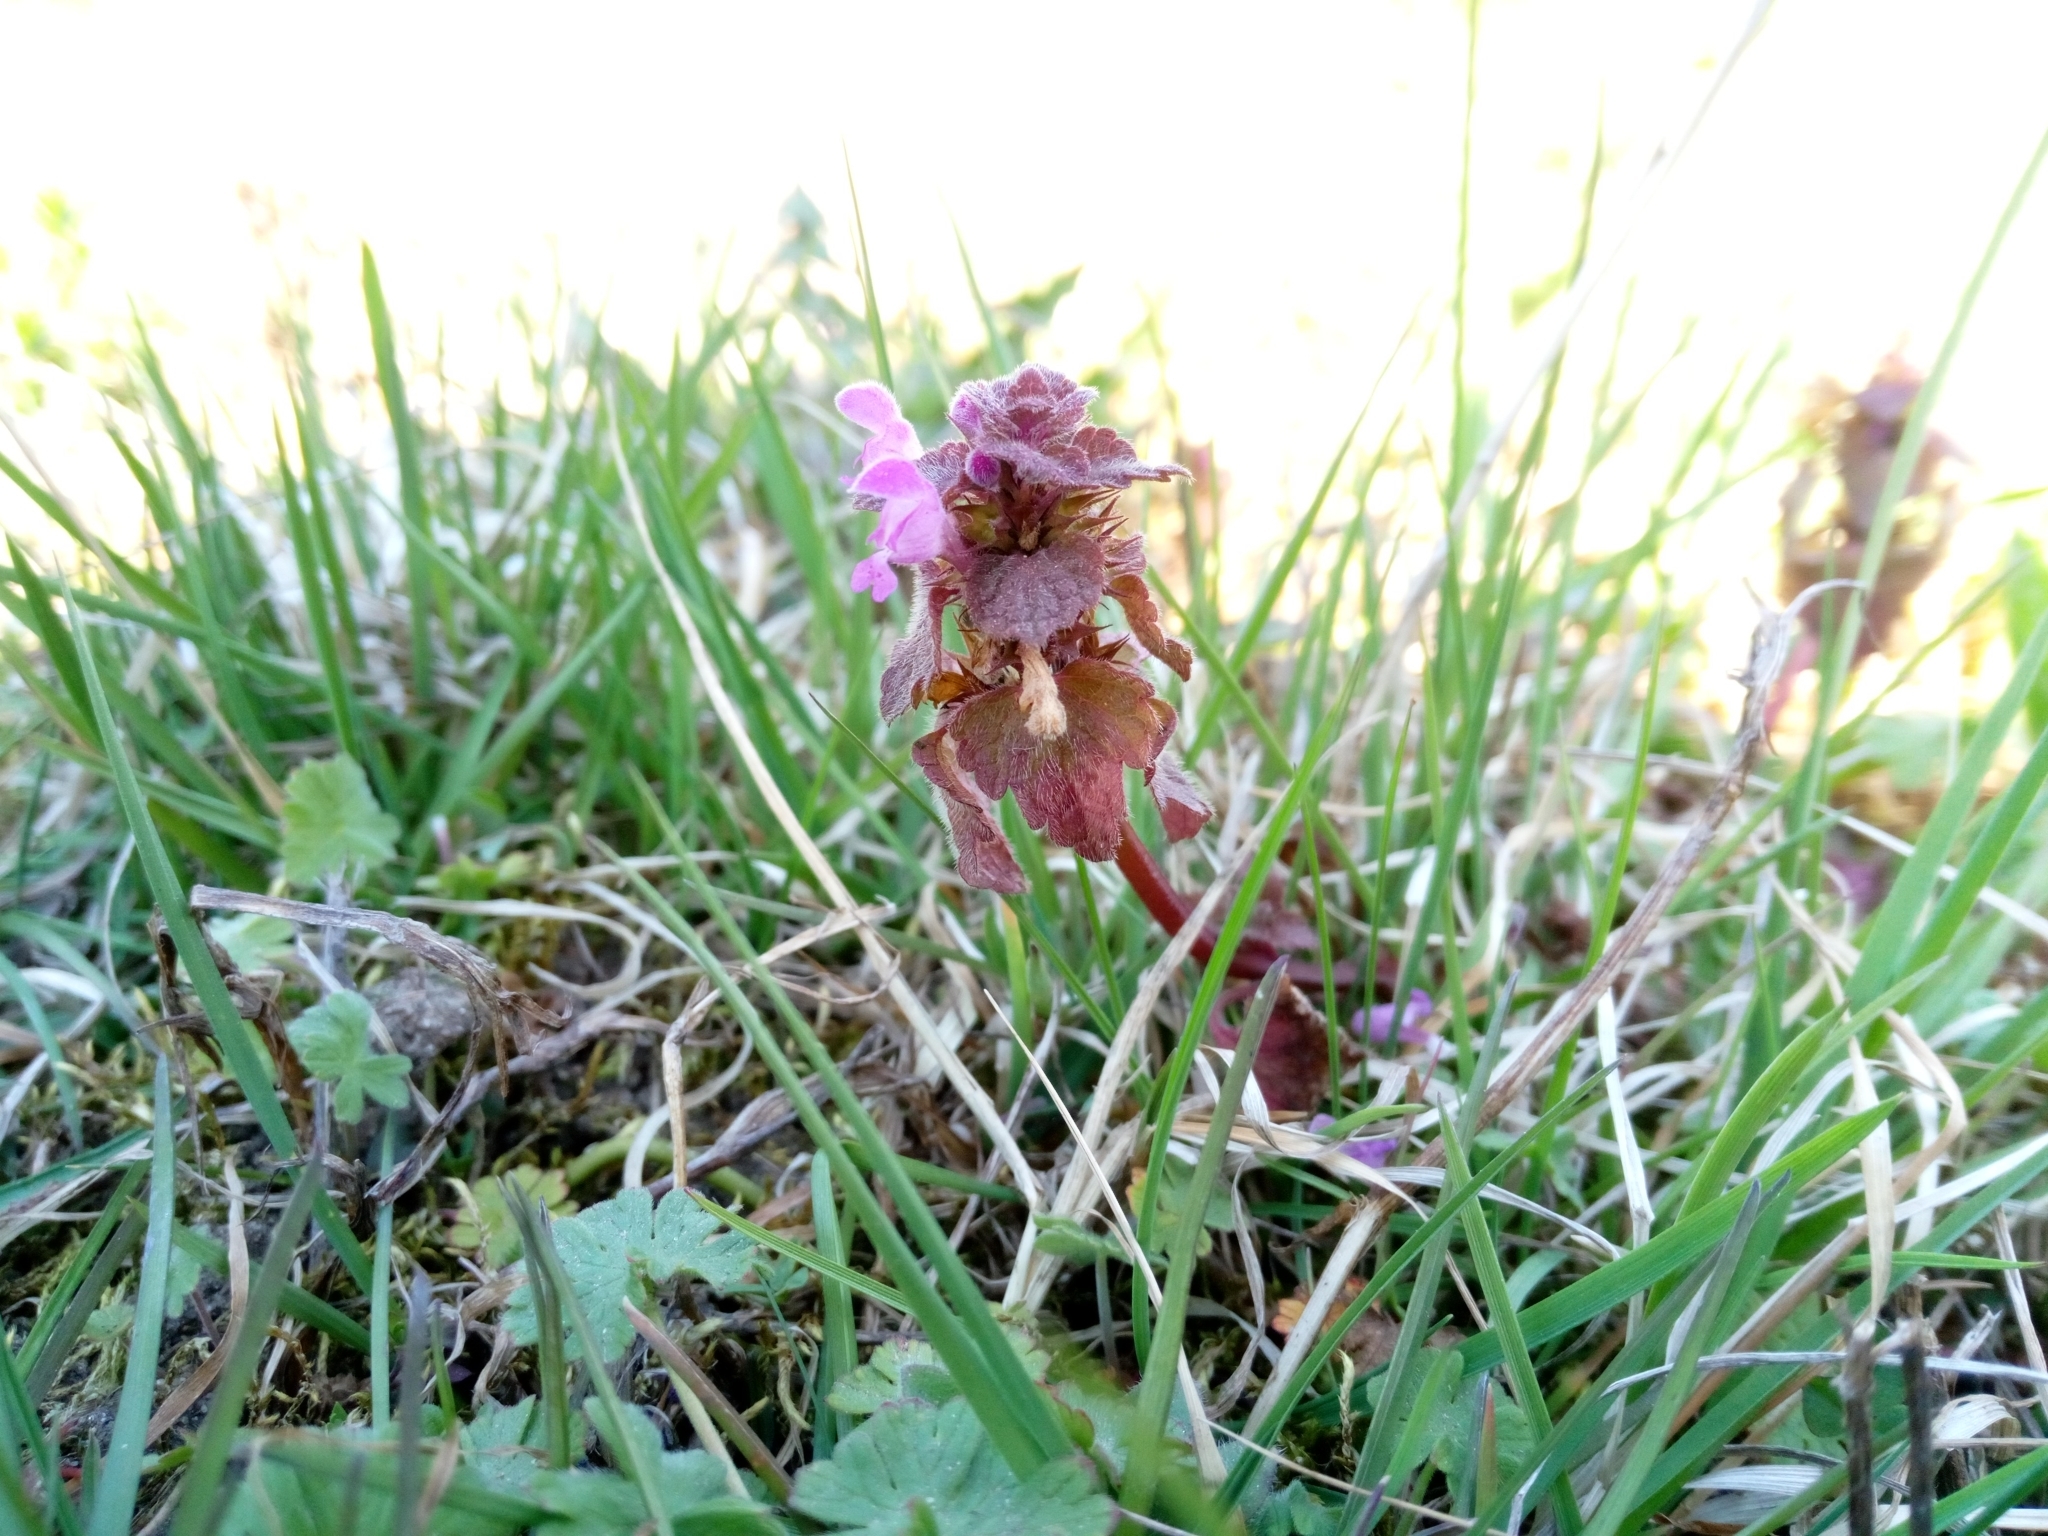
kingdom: Plantae
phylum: Tracheophyta
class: Magnoliopsida
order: Lamiales
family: Lamiaceae
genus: Lamium
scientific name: Lamium purpureum
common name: Red dead-nettle
